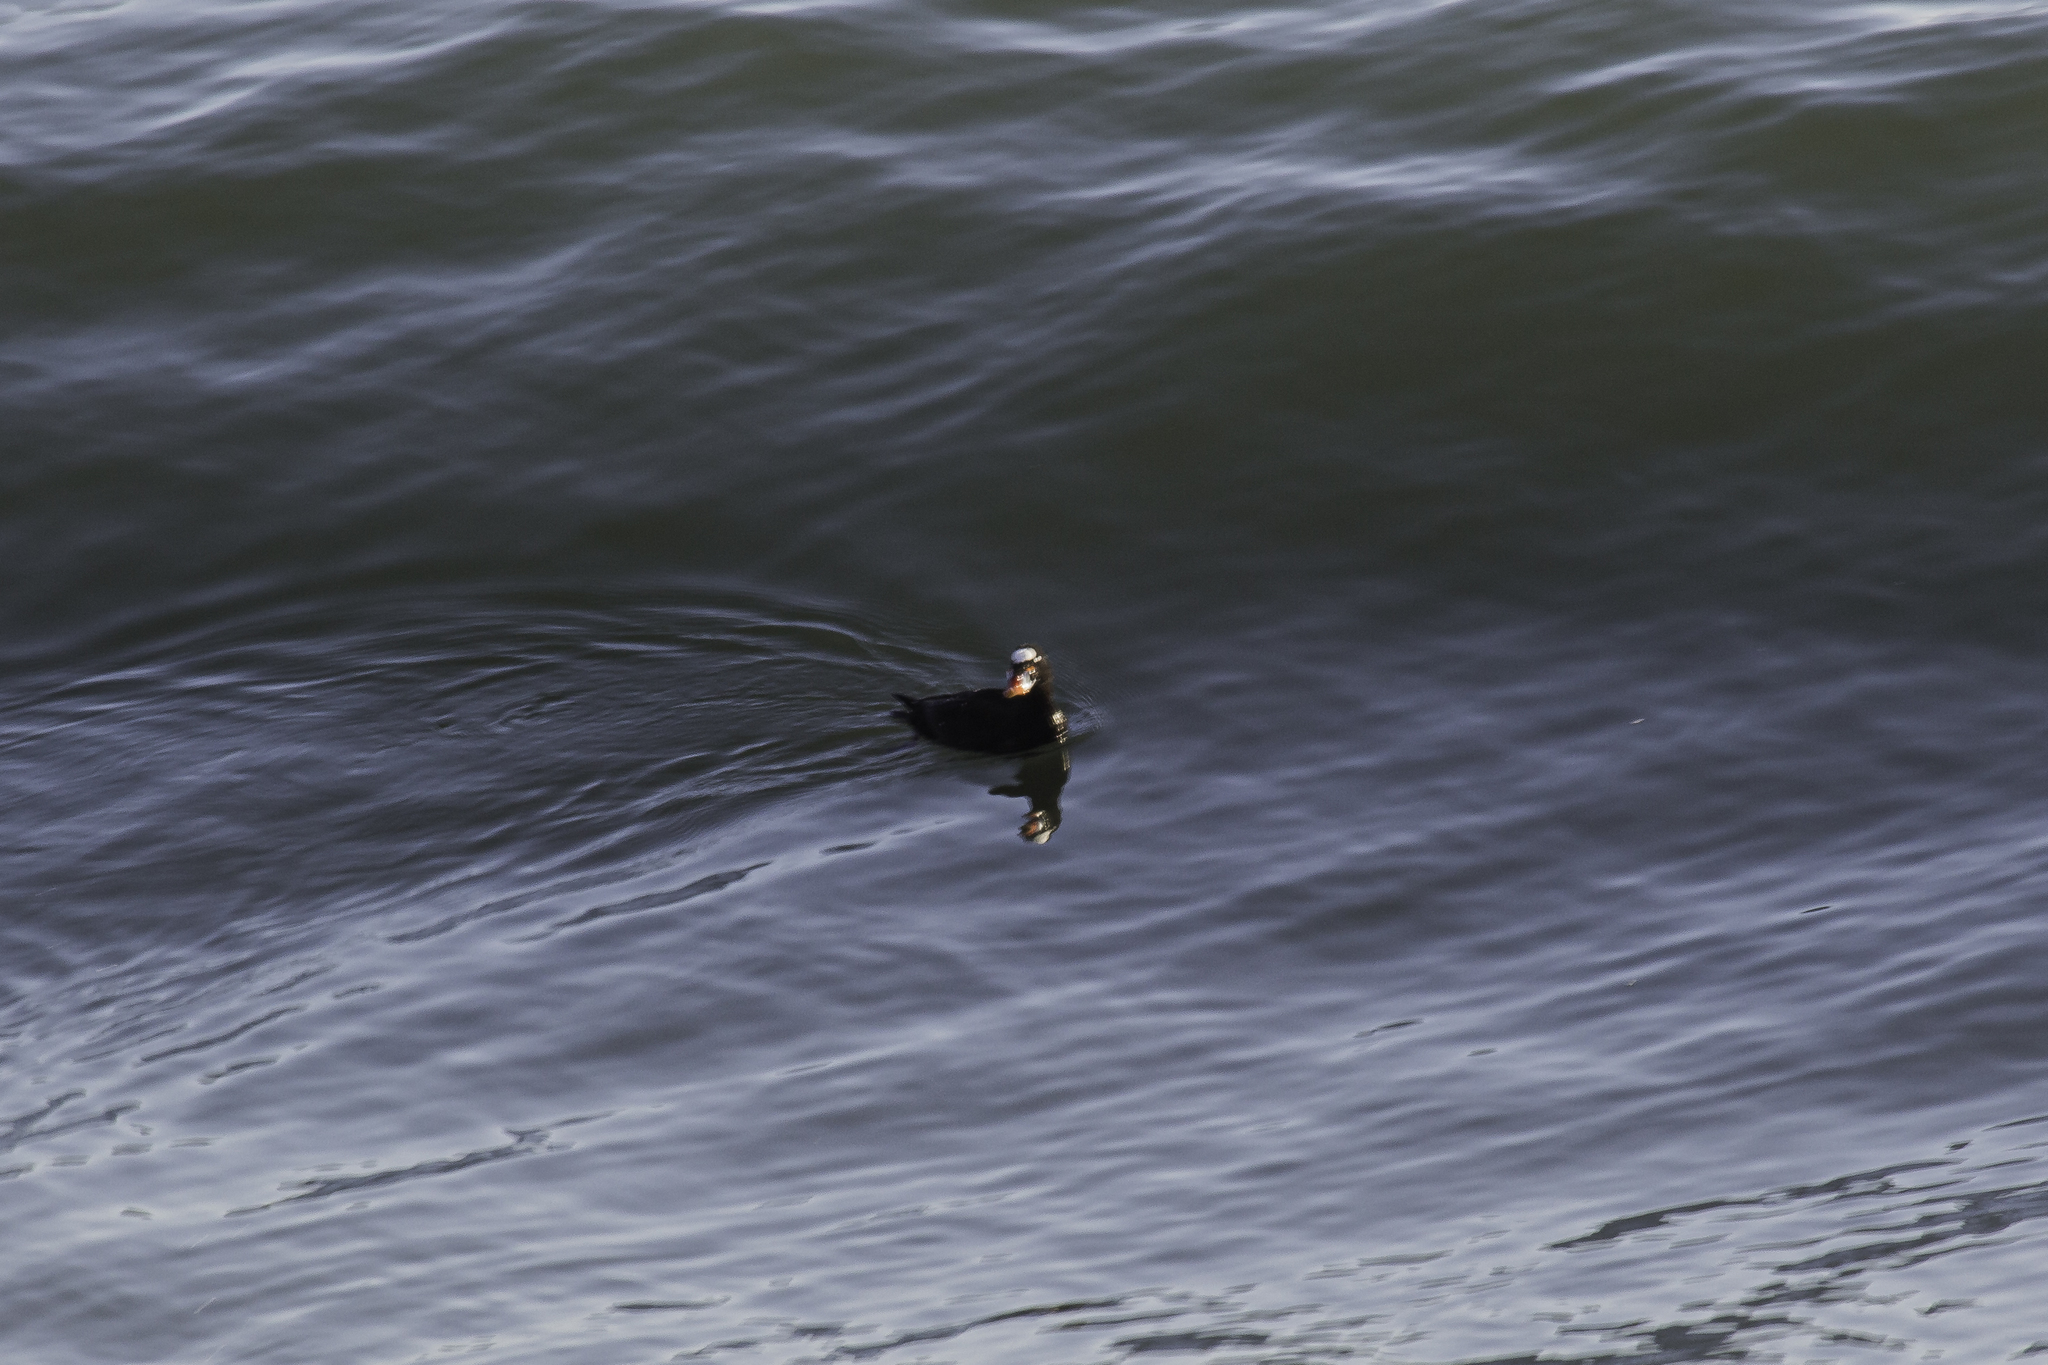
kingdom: Animalia
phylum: Chordata
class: Aves
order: Anseriformes
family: Anatidae
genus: Melanitta
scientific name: Melanitta perspicillata
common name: Surf scoter
